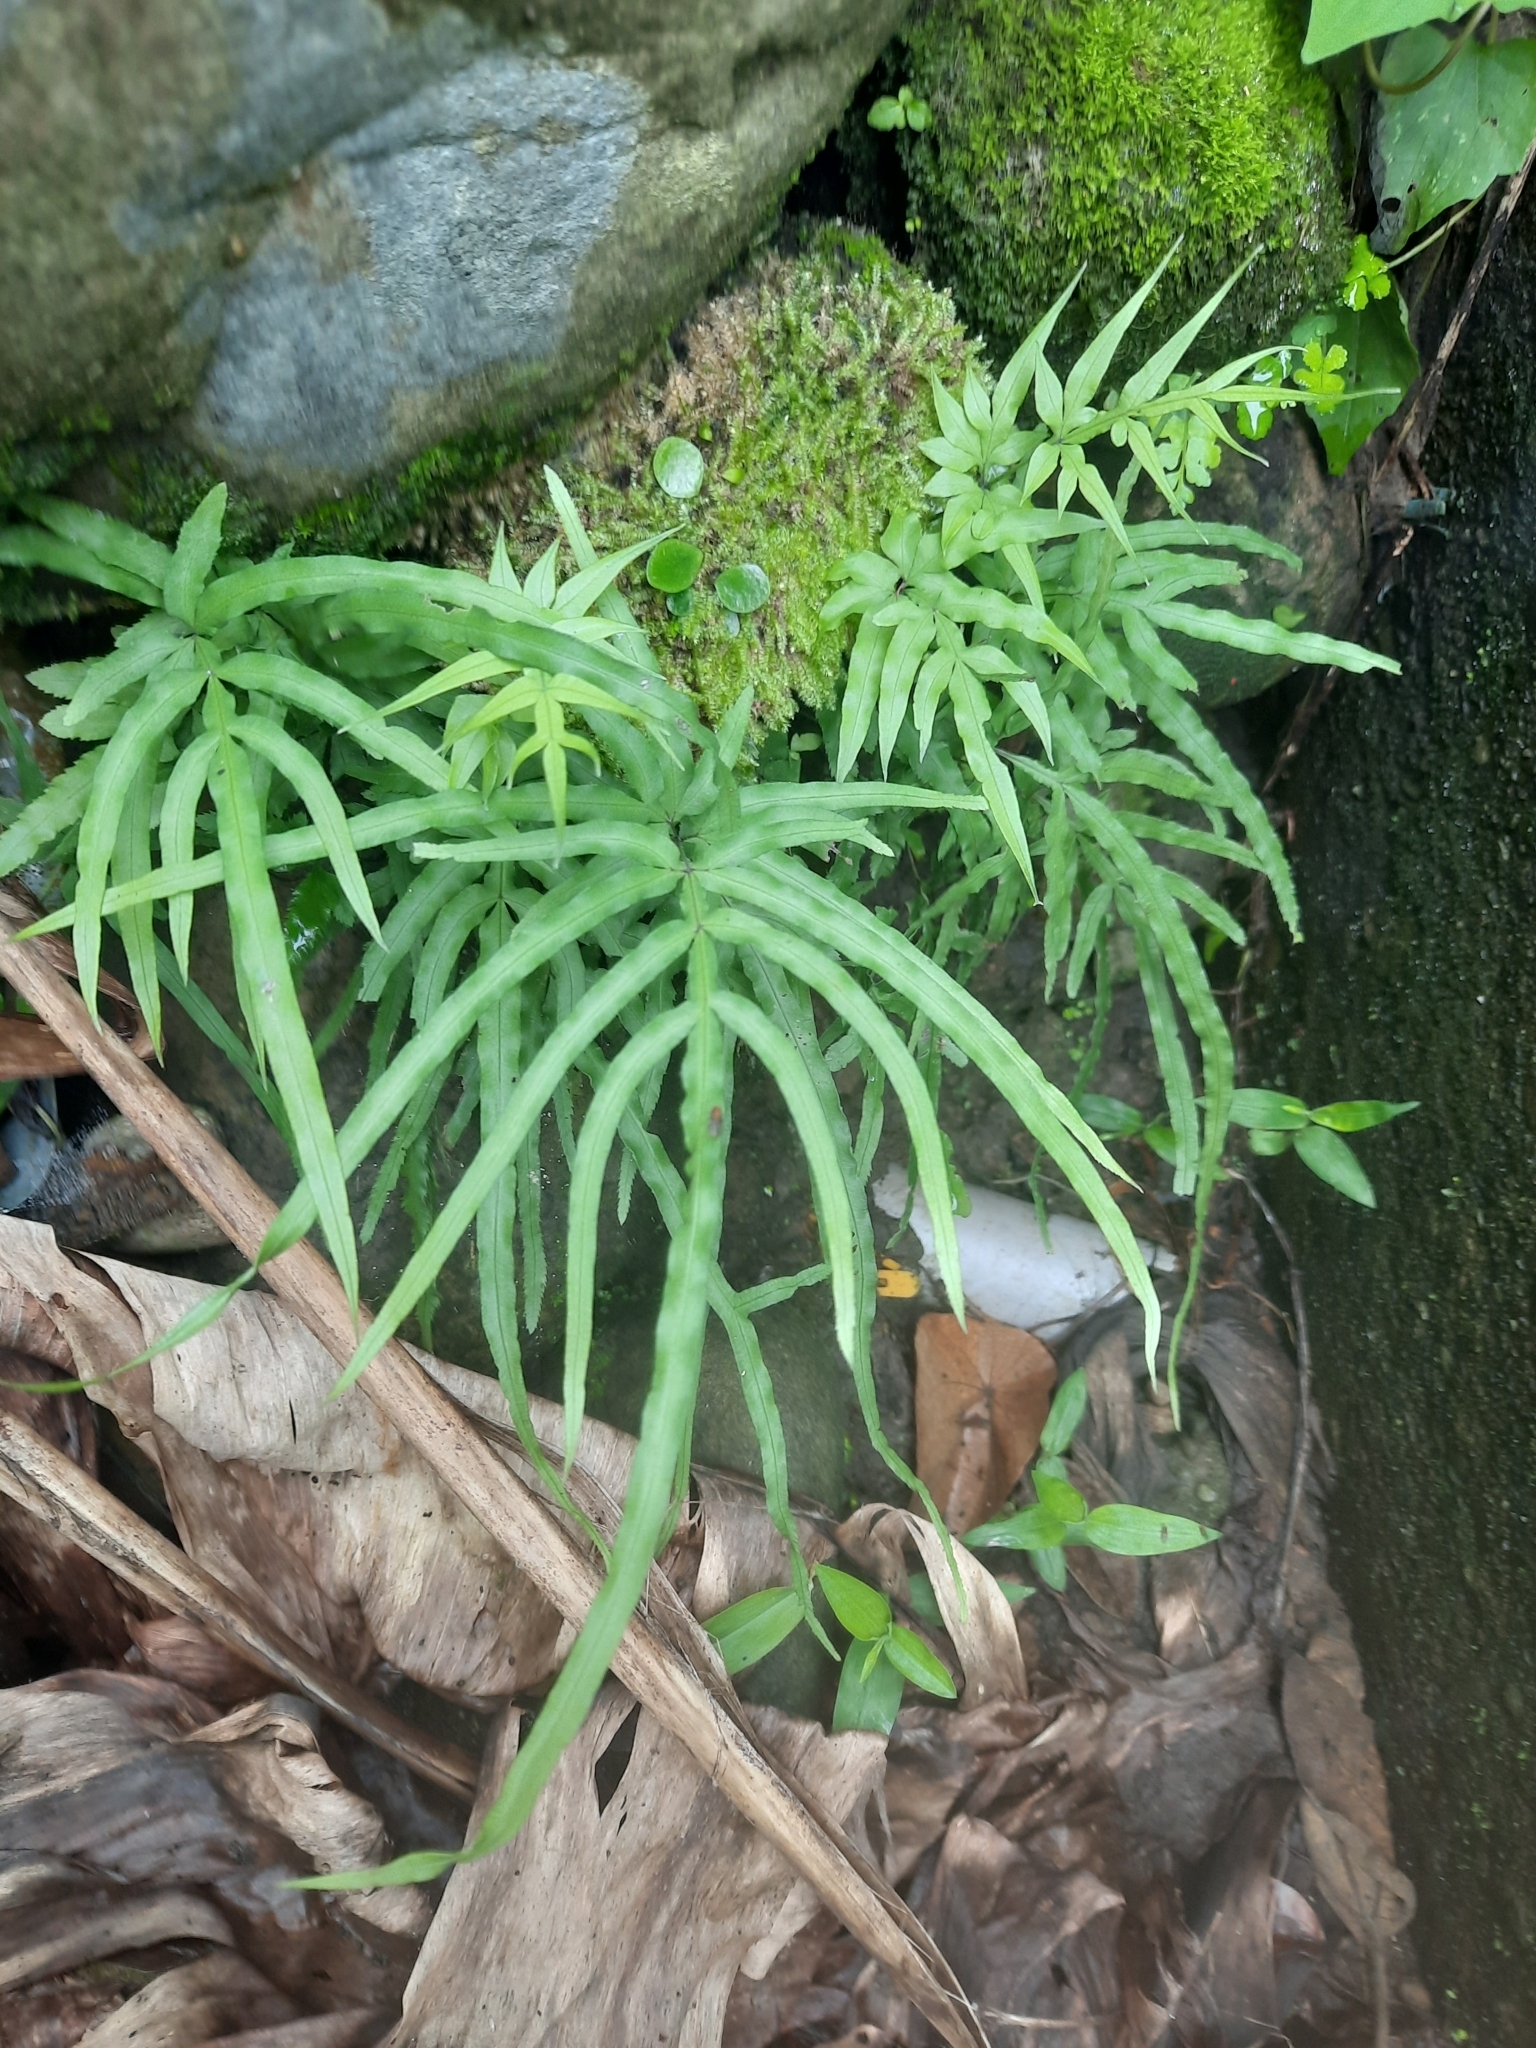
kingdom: Plantae
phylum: Tracheophyta
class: Polypodiopsida
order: Polypodiales
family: Pteridaceae
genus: Pteris
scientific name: Pteris multifida
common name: Spider brake
